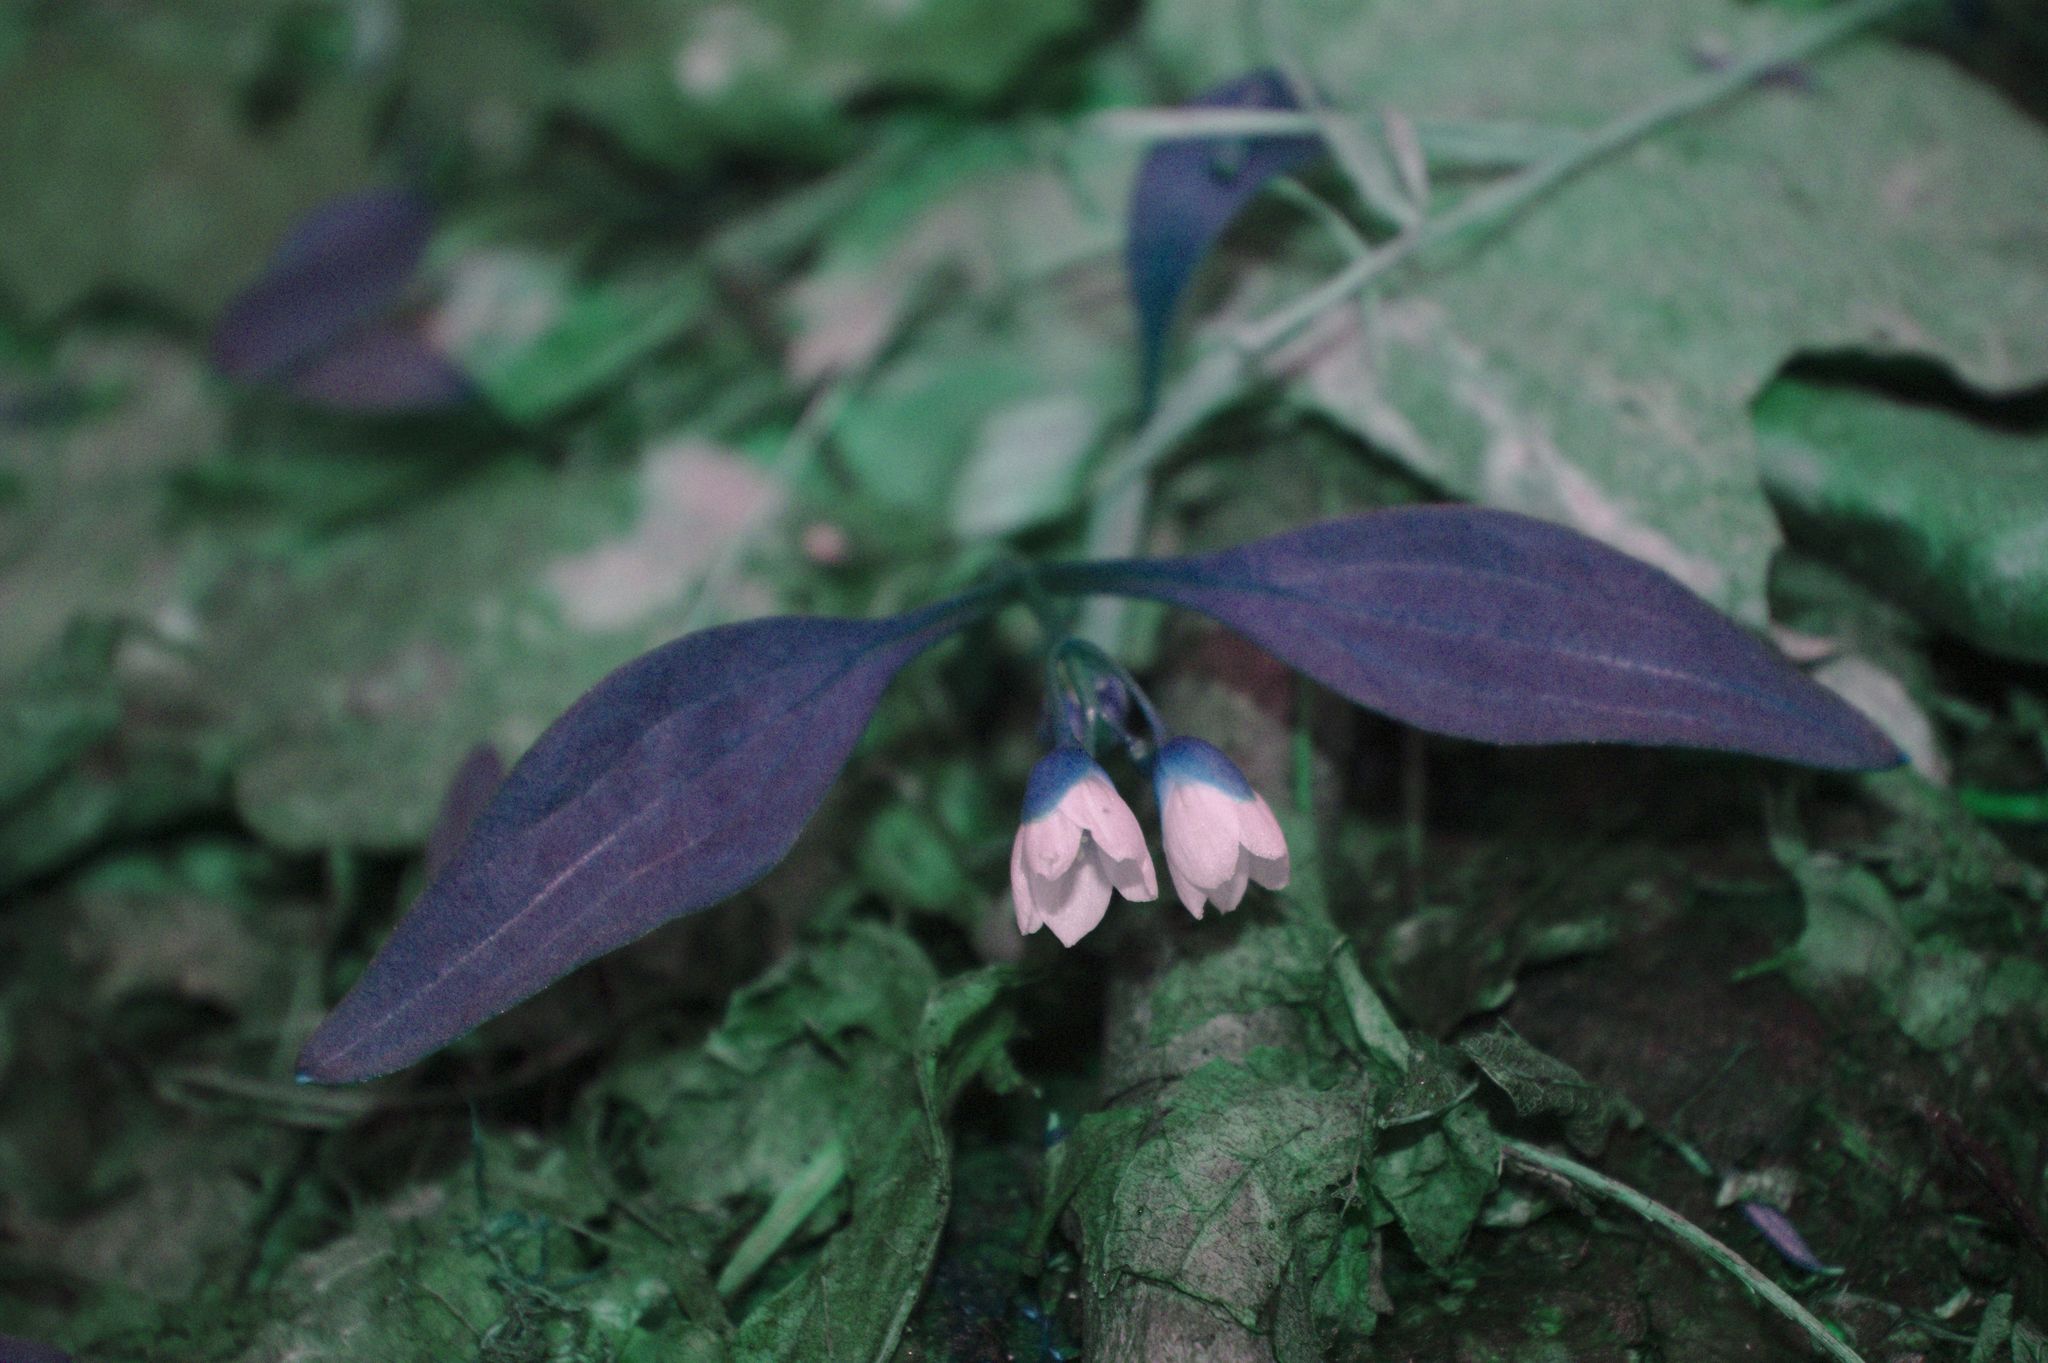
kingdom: Plantae
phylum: Tracheophyta
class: Magnoliopsida
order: Caryophyllales
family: Montiaceae
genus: Claytonia
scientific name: Claytonia caroliniana
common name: Carolina spring beauty
